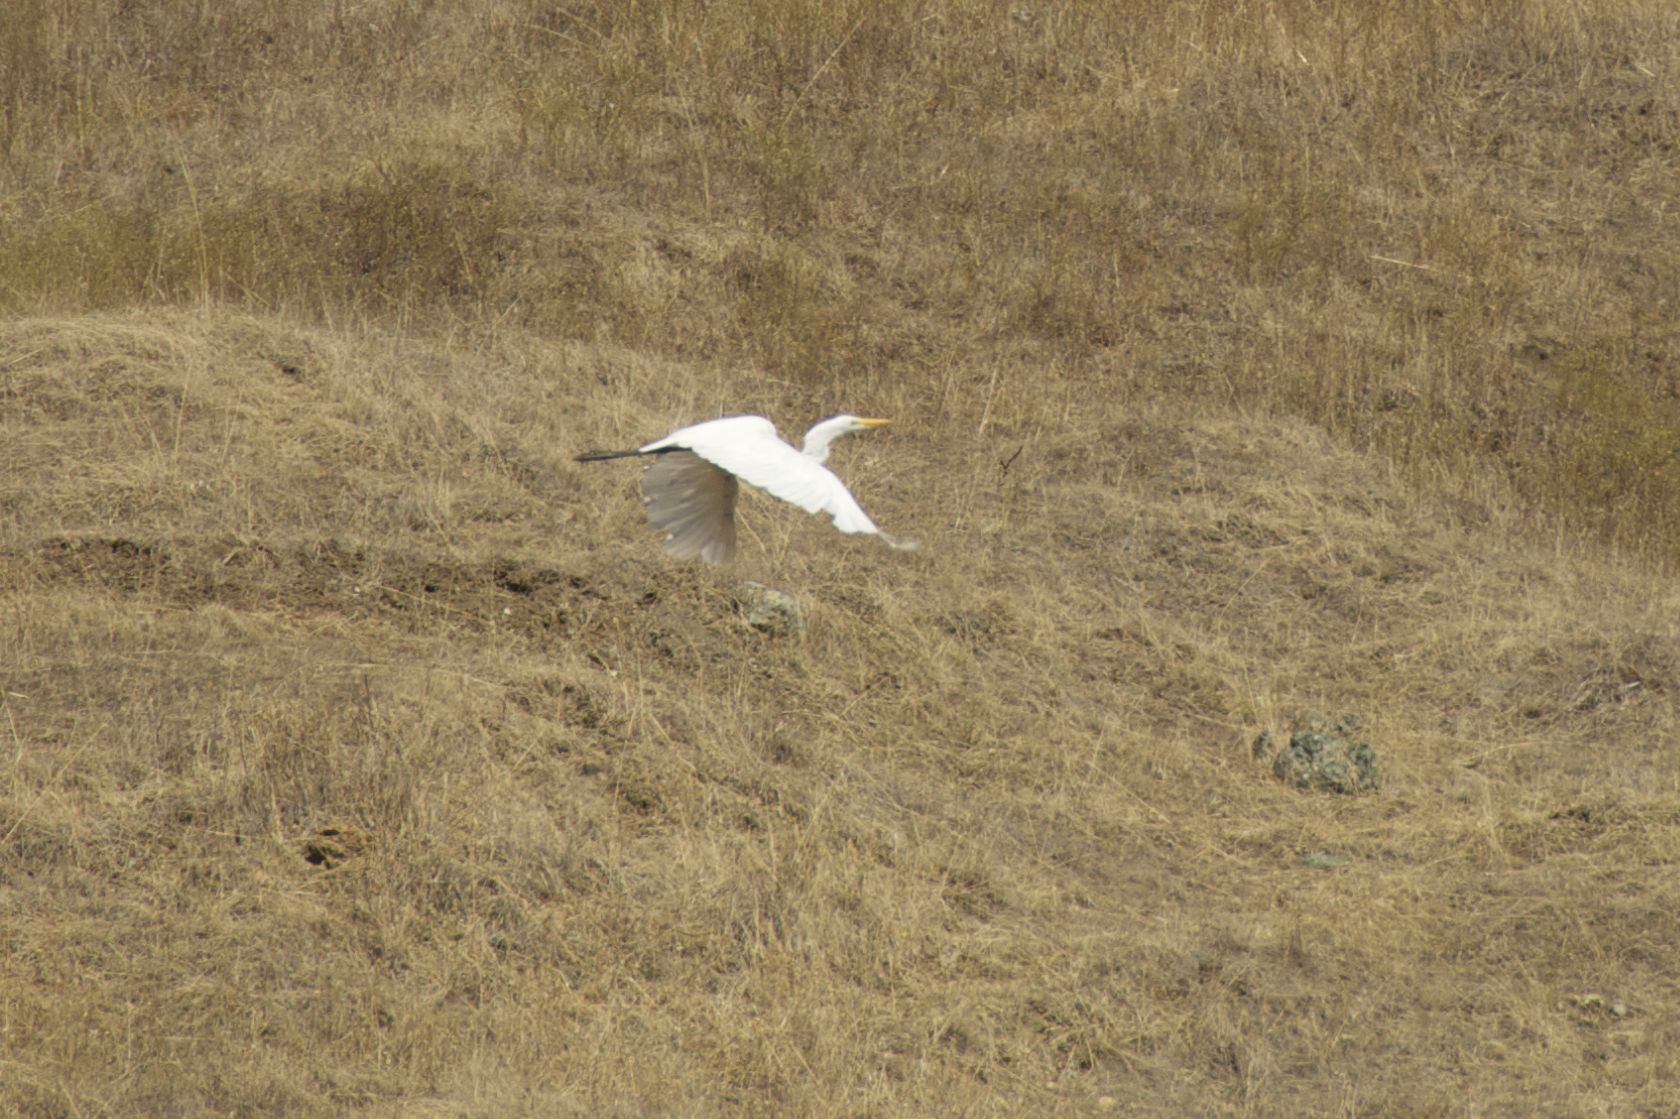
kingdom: Animalia
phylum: Chordata
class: Aves
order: Pelecaniformes
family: Ardeidae
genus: Ardea
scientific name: Ardea alba
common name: Great egret
